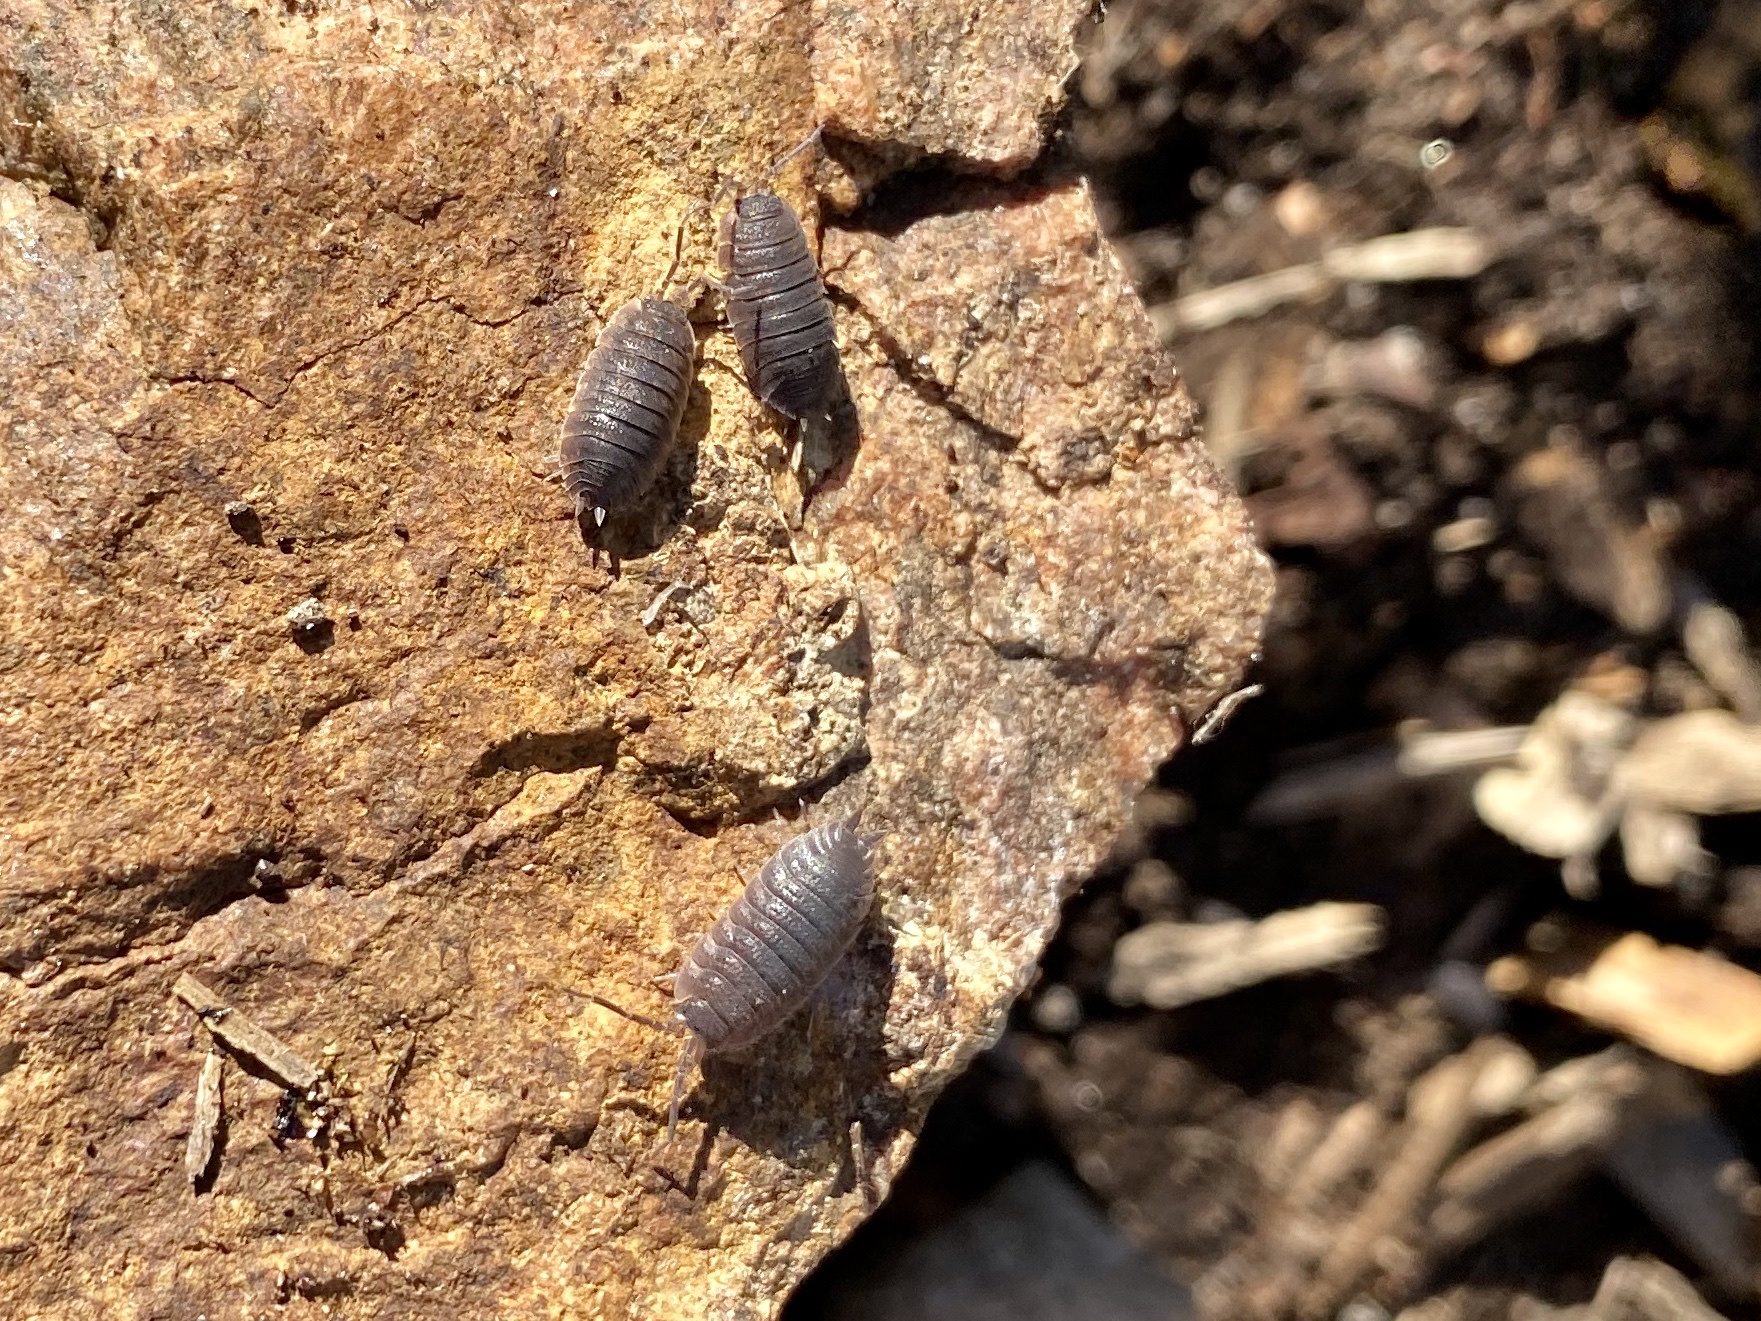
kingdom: Animalia
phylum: Arthropoda
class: Malacostraca
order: Isopoda
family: Porcellionidae
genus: Porcellio
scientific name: Porcellio scaber
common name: Common rough woodlouse
